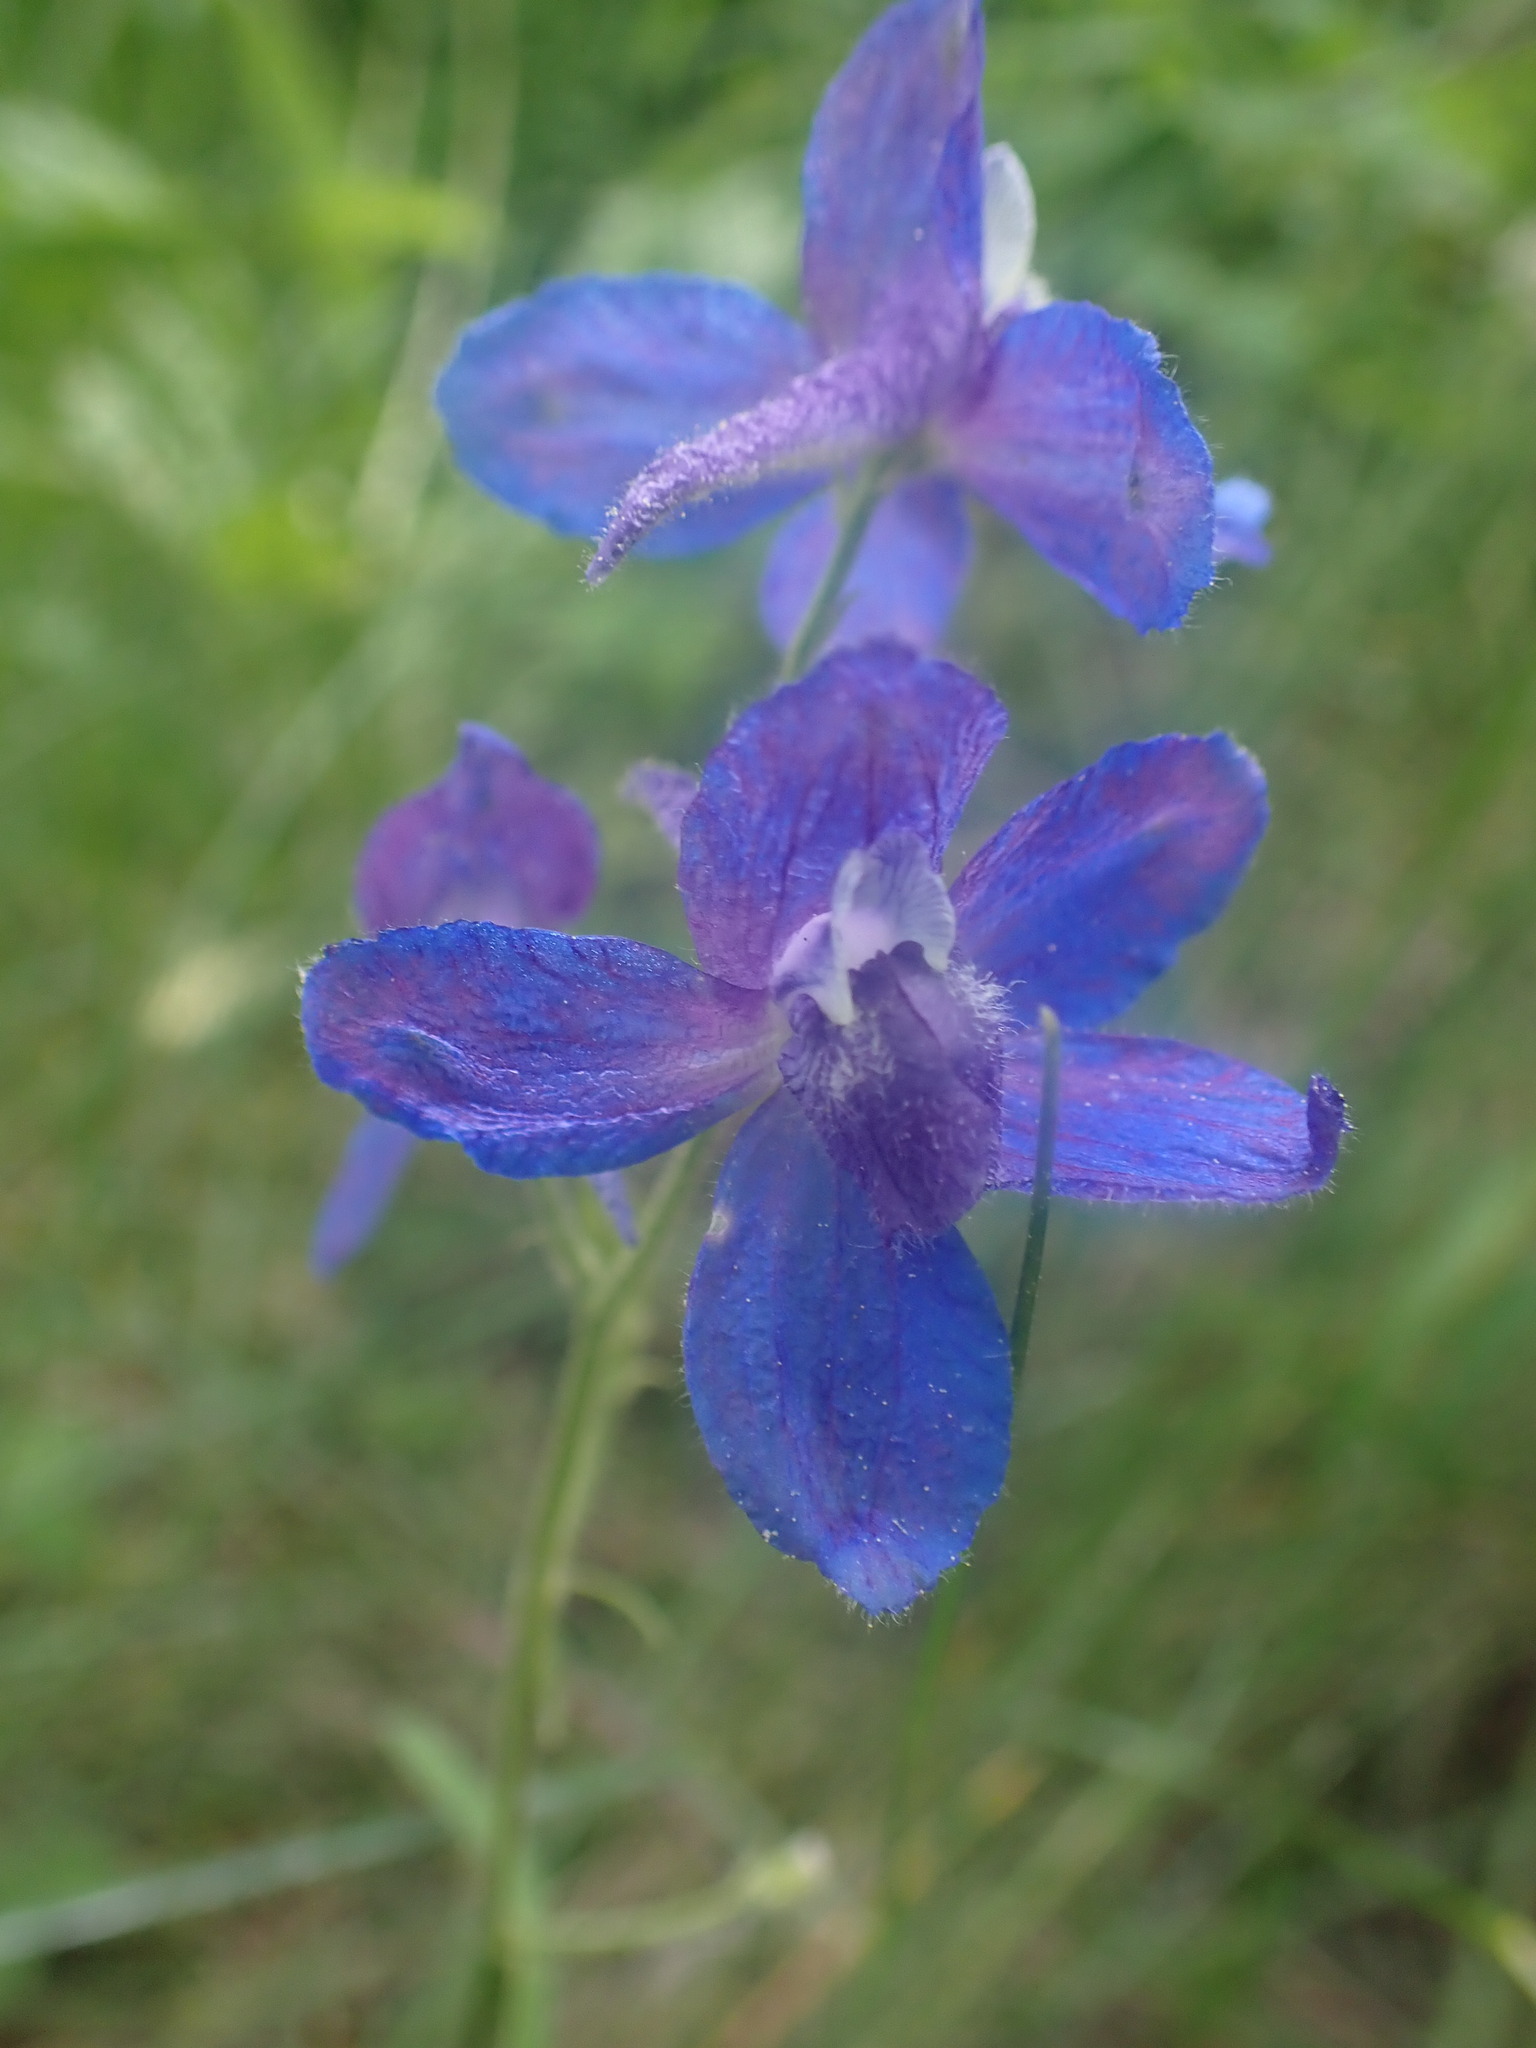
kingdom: Plantae
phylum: Tracheophyta
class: Magnoliopsida
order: Ranunculales
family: Ranunculaceae
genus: Delphinium
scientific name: Delphinium nuttallianum
